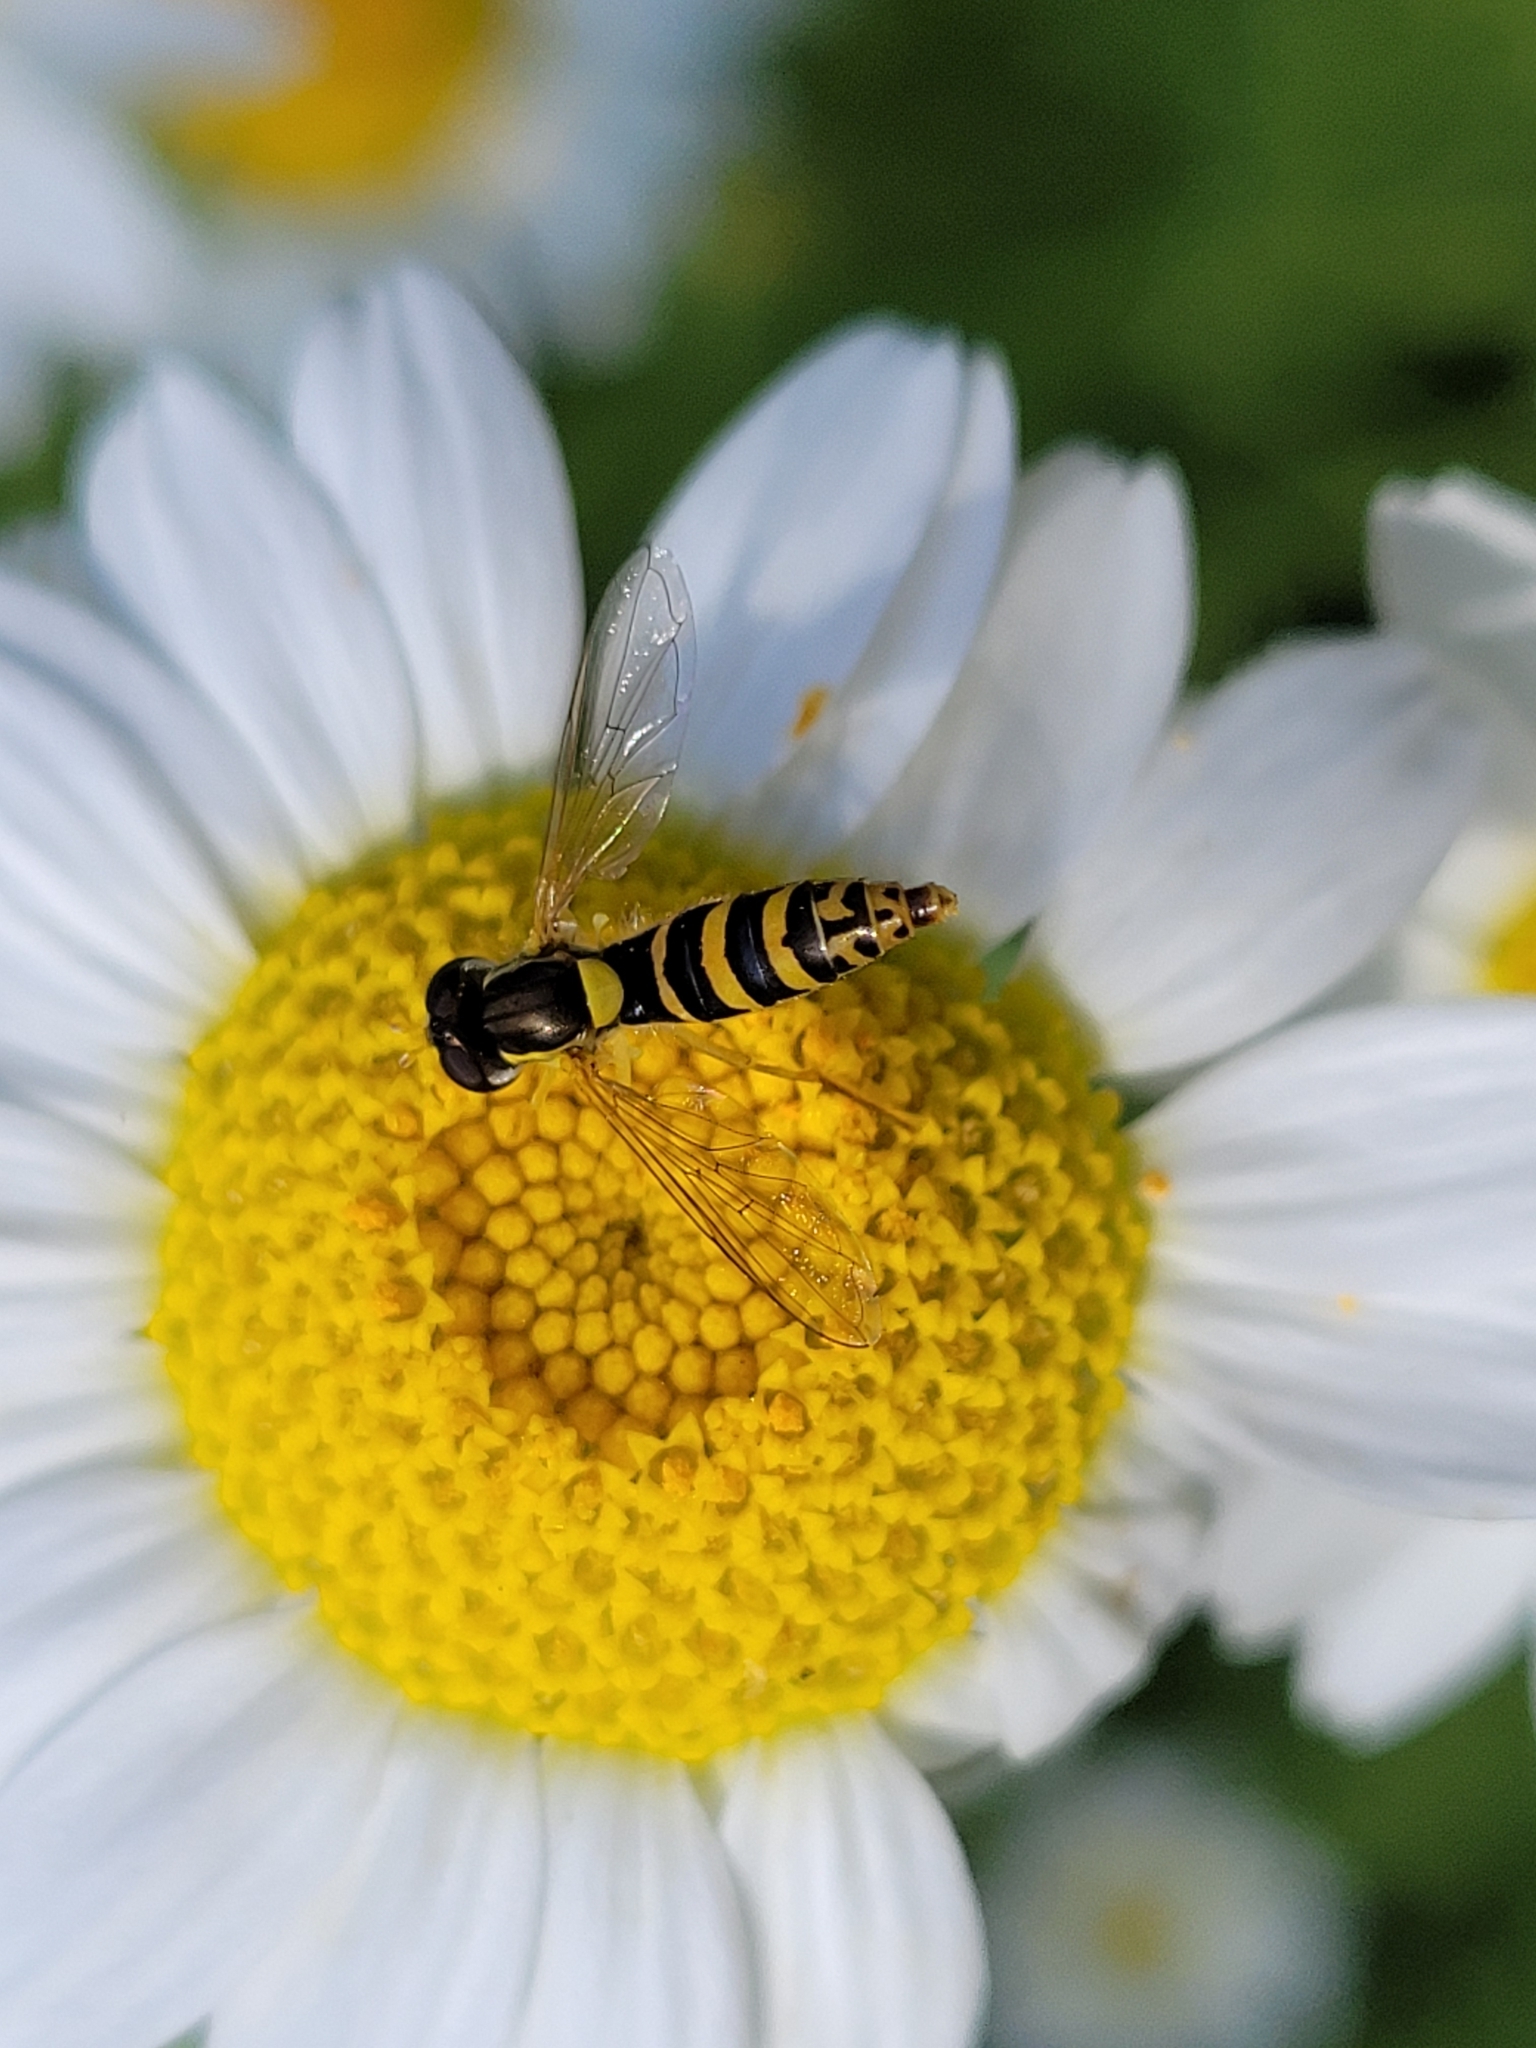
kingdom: Animalia
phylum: Arthropoda
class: Insecta
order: Diptera
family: Syrphidae
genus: Sphaerophoria
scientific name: Sphaerophoria
